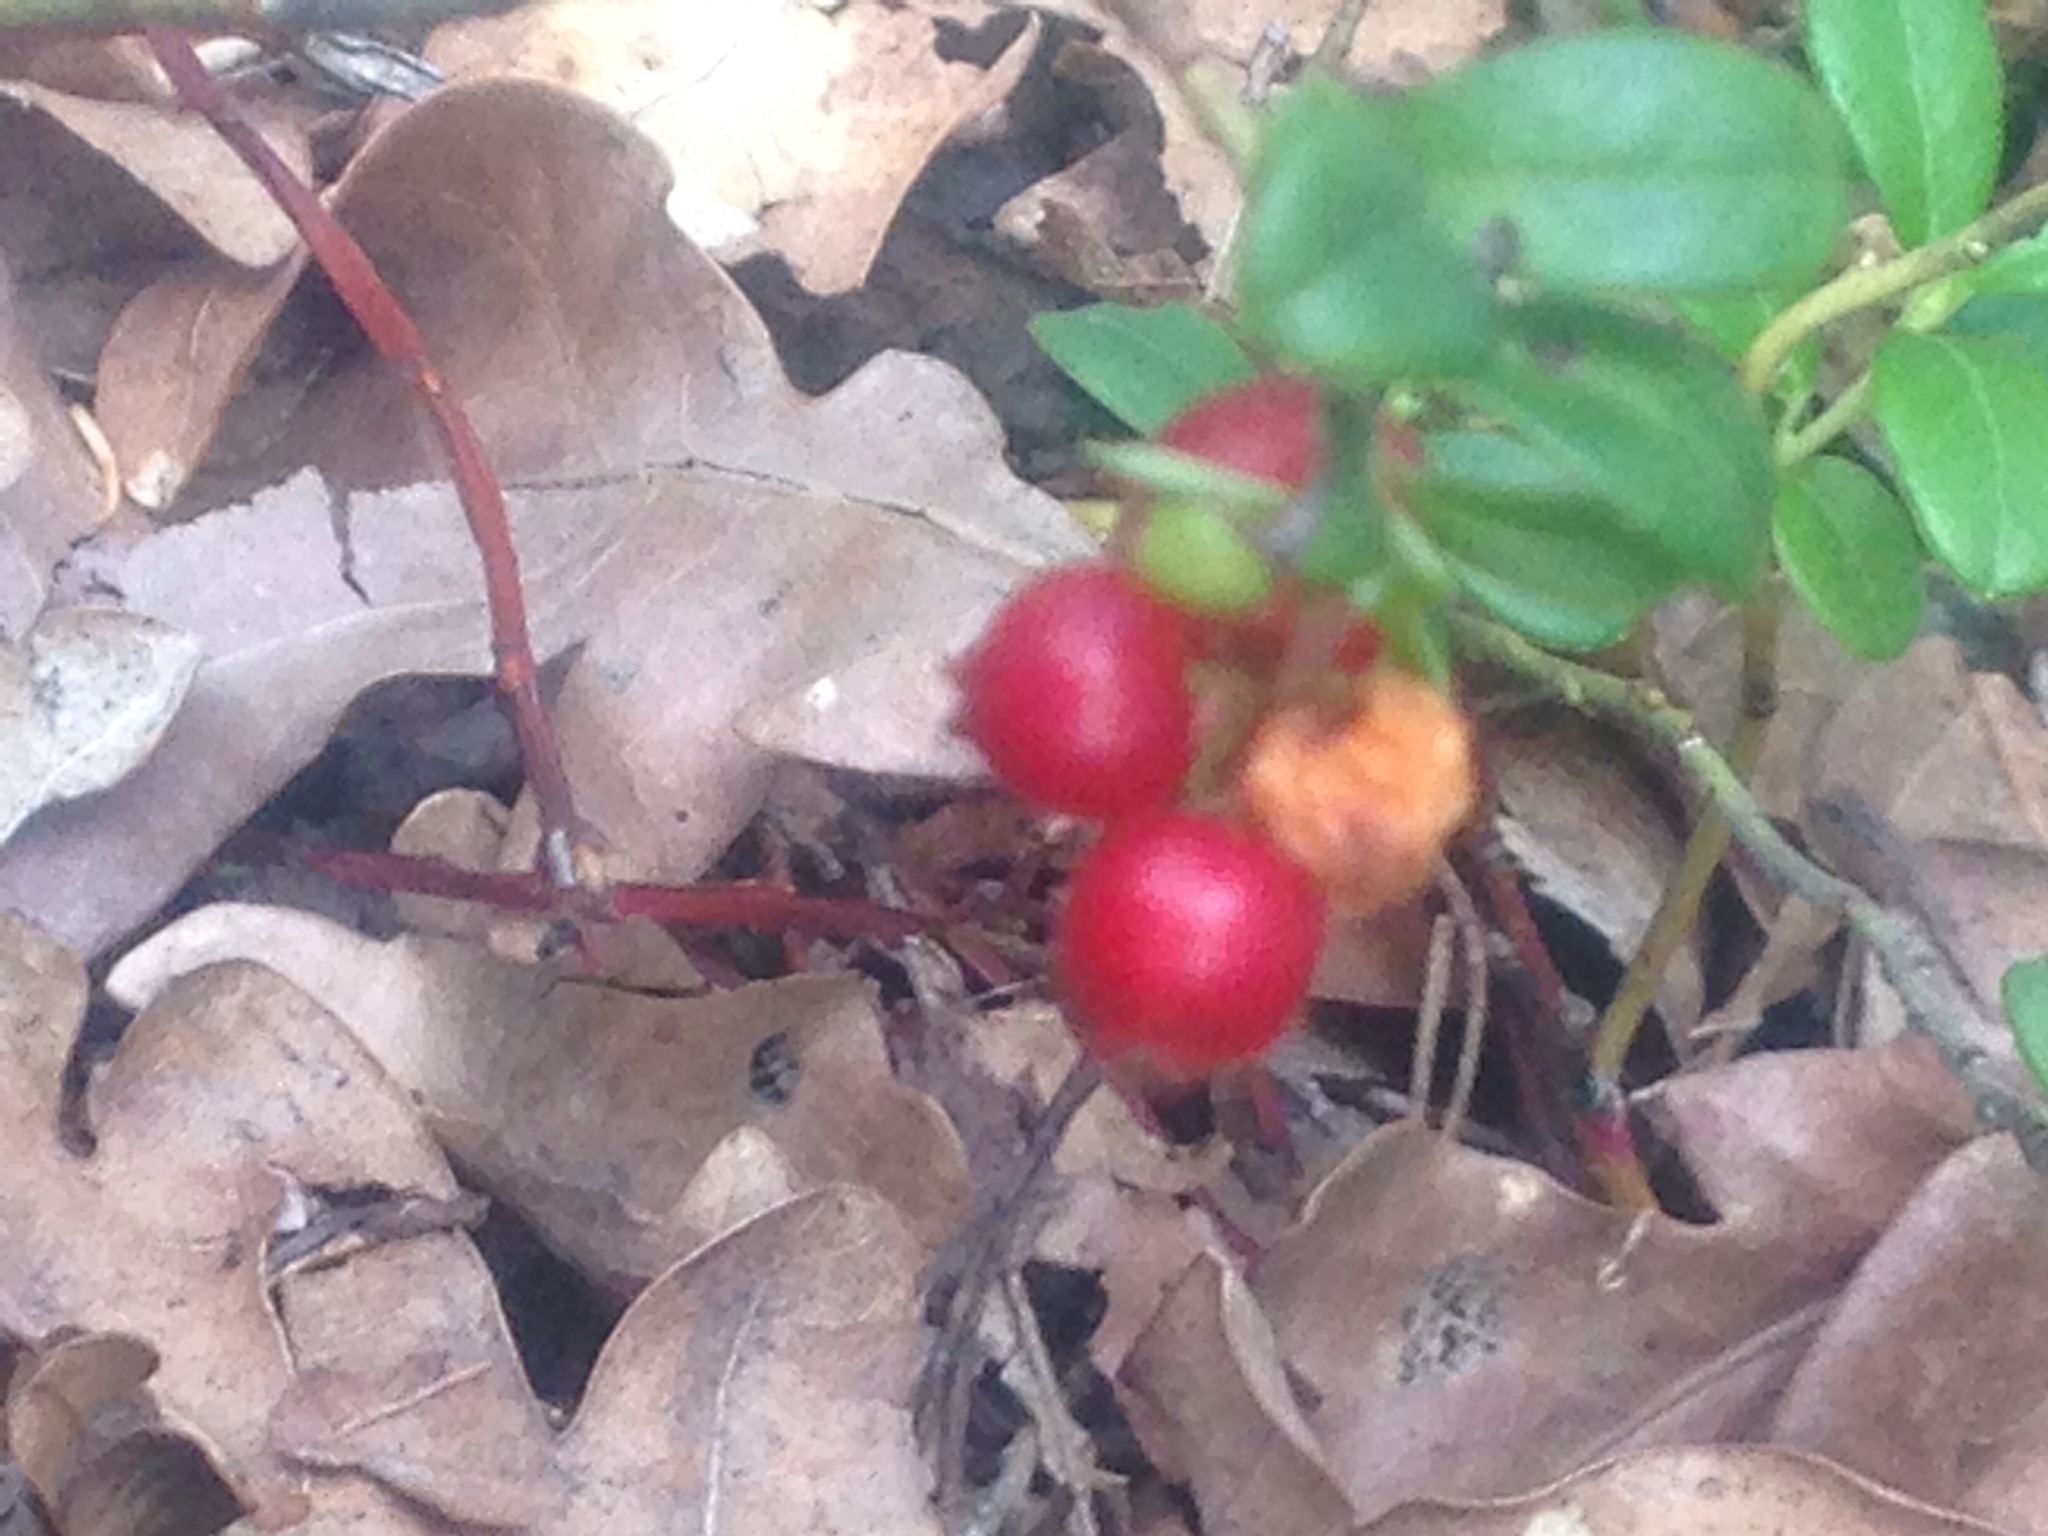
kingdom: Plantae
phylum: Tracheophyta
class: Magnoliopsida
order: Ericales
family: Ericaceae
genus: Vaccinium
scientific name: Vaccinium vitis-idaea
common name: Cowberry
